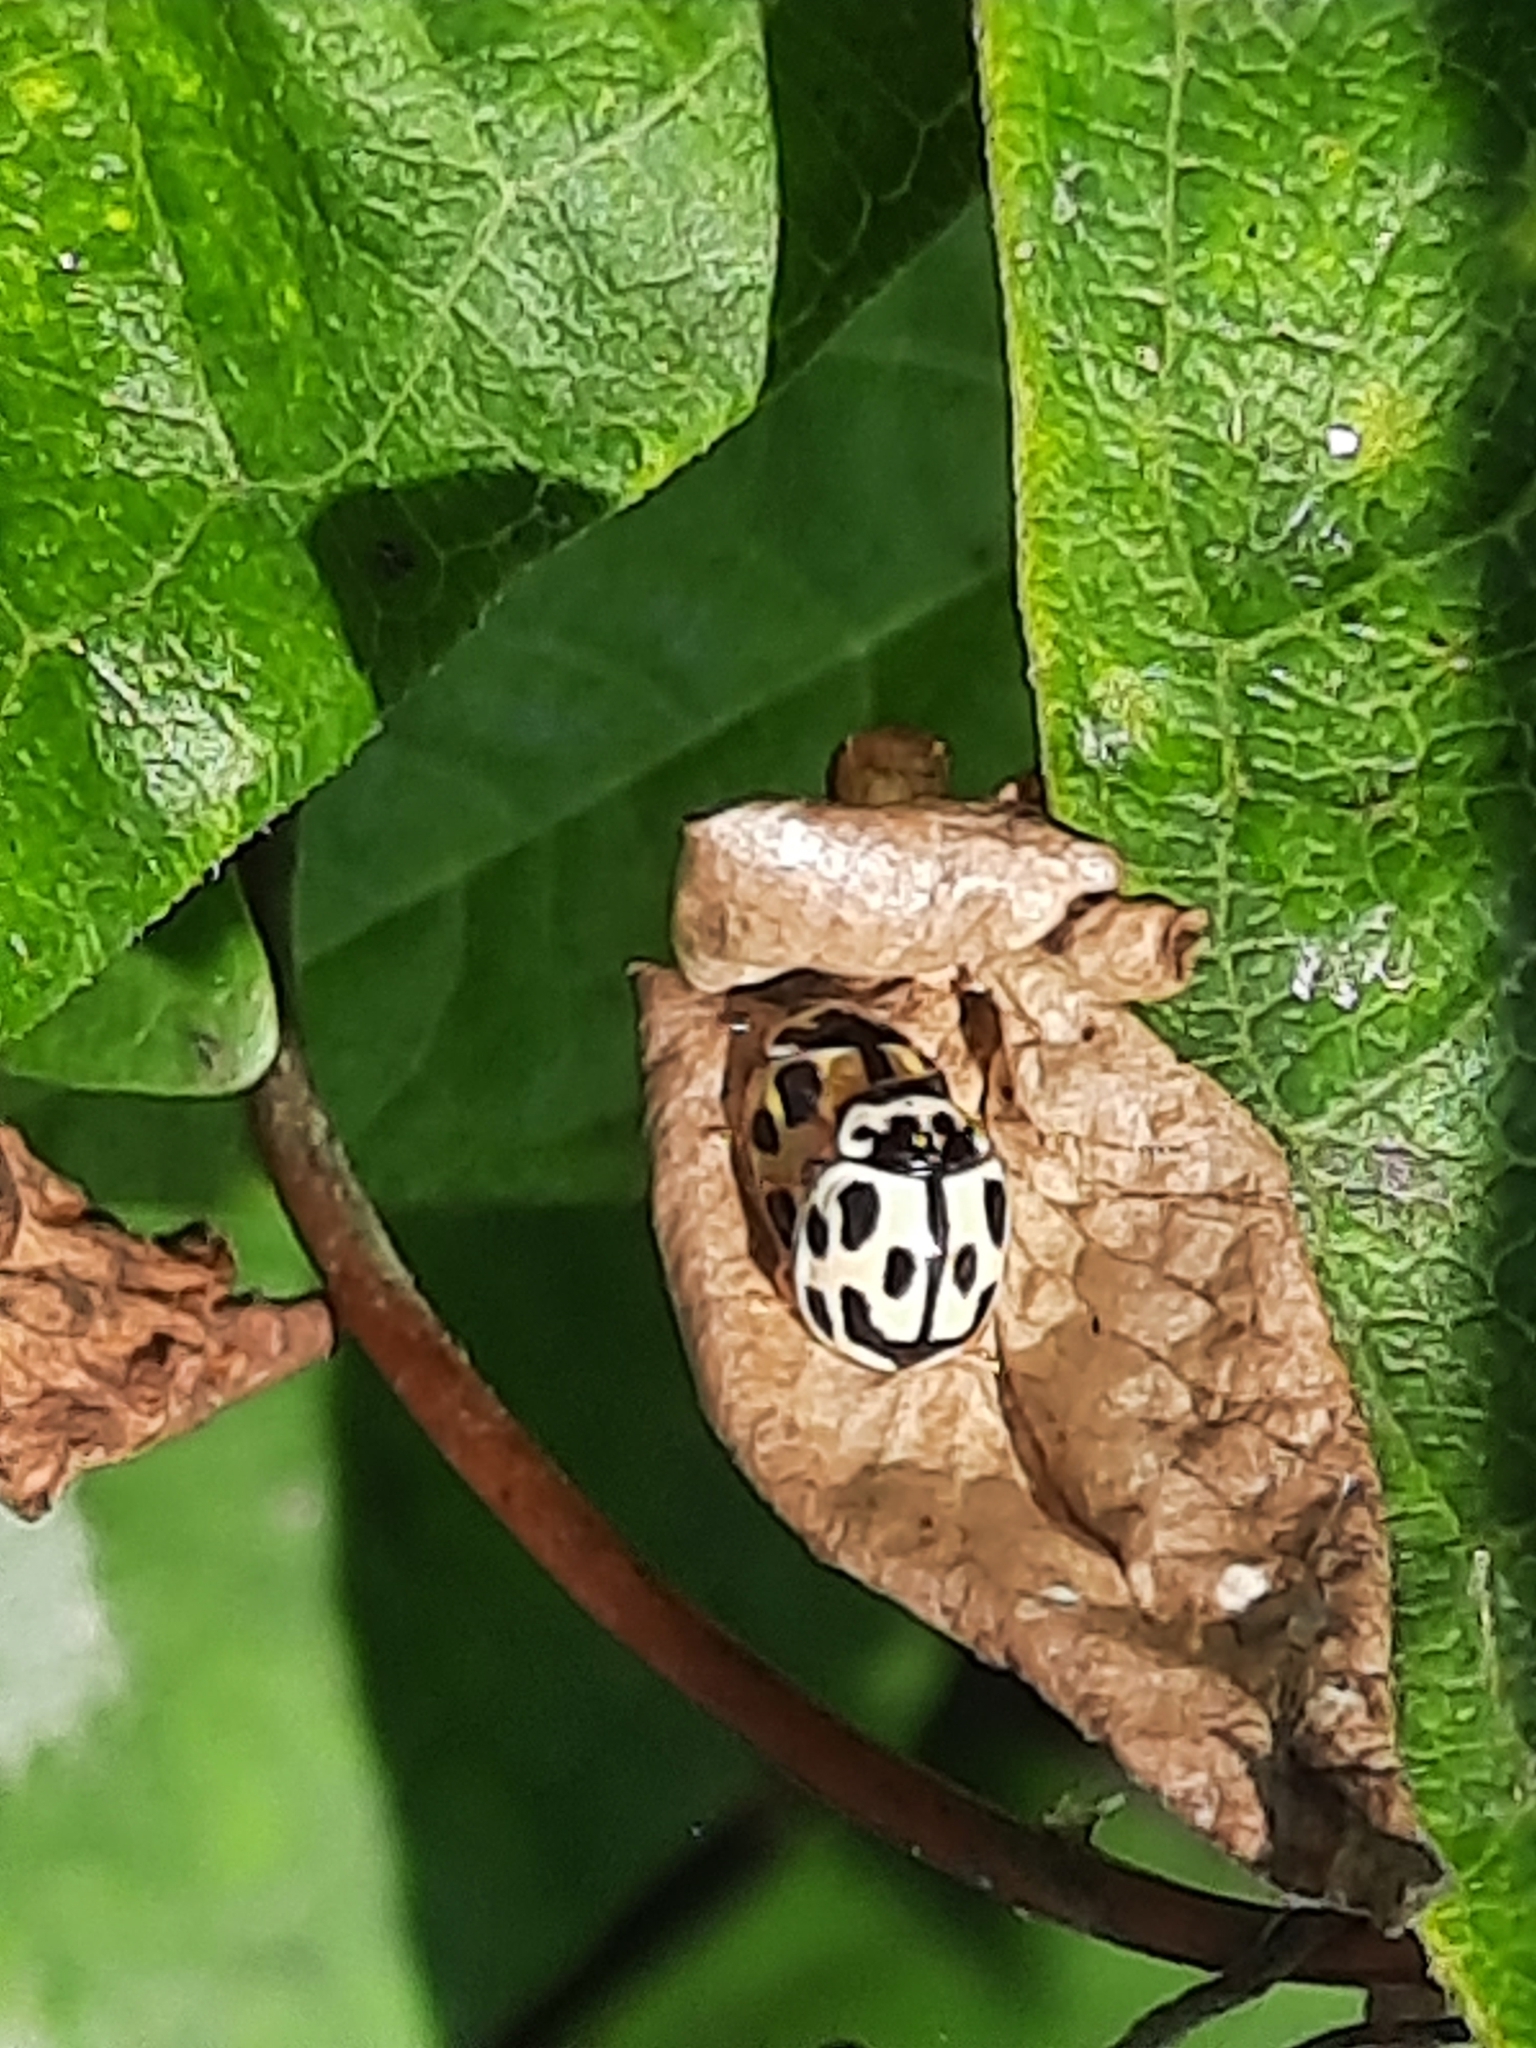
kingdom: Animalia
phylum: Arthropoda
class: Insecta
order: Coleoptera
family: Coccinellidae
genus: Propylaea
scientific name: Propylaea quatuordecimpunctata
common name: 14-spotted ladybird beetle
